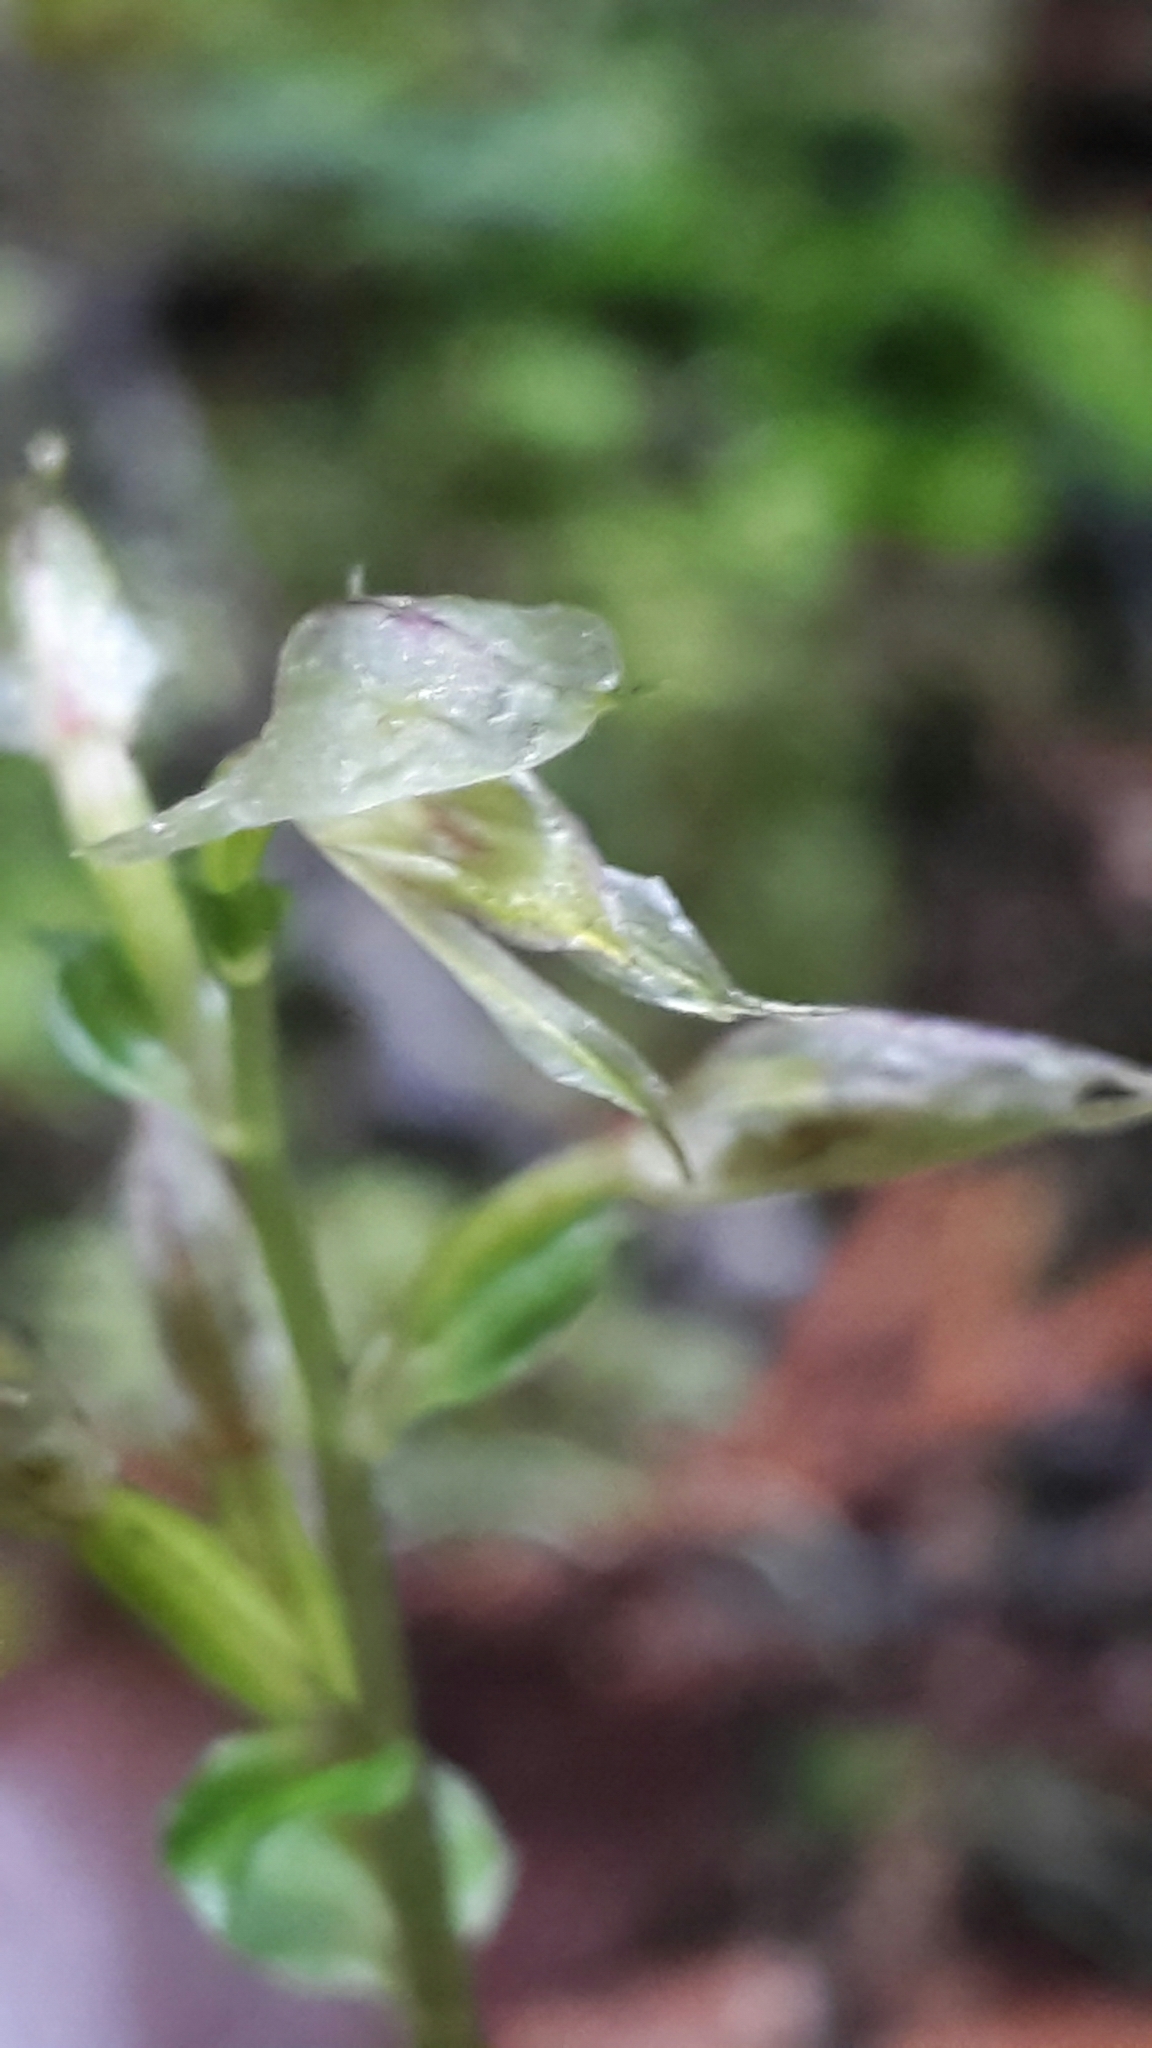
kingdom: Plantae
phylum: Tracheophyta
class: Liliopsida
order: Asparagales
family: Orchidaceae
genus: Acianthus
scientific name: Acianthus sinclairii
